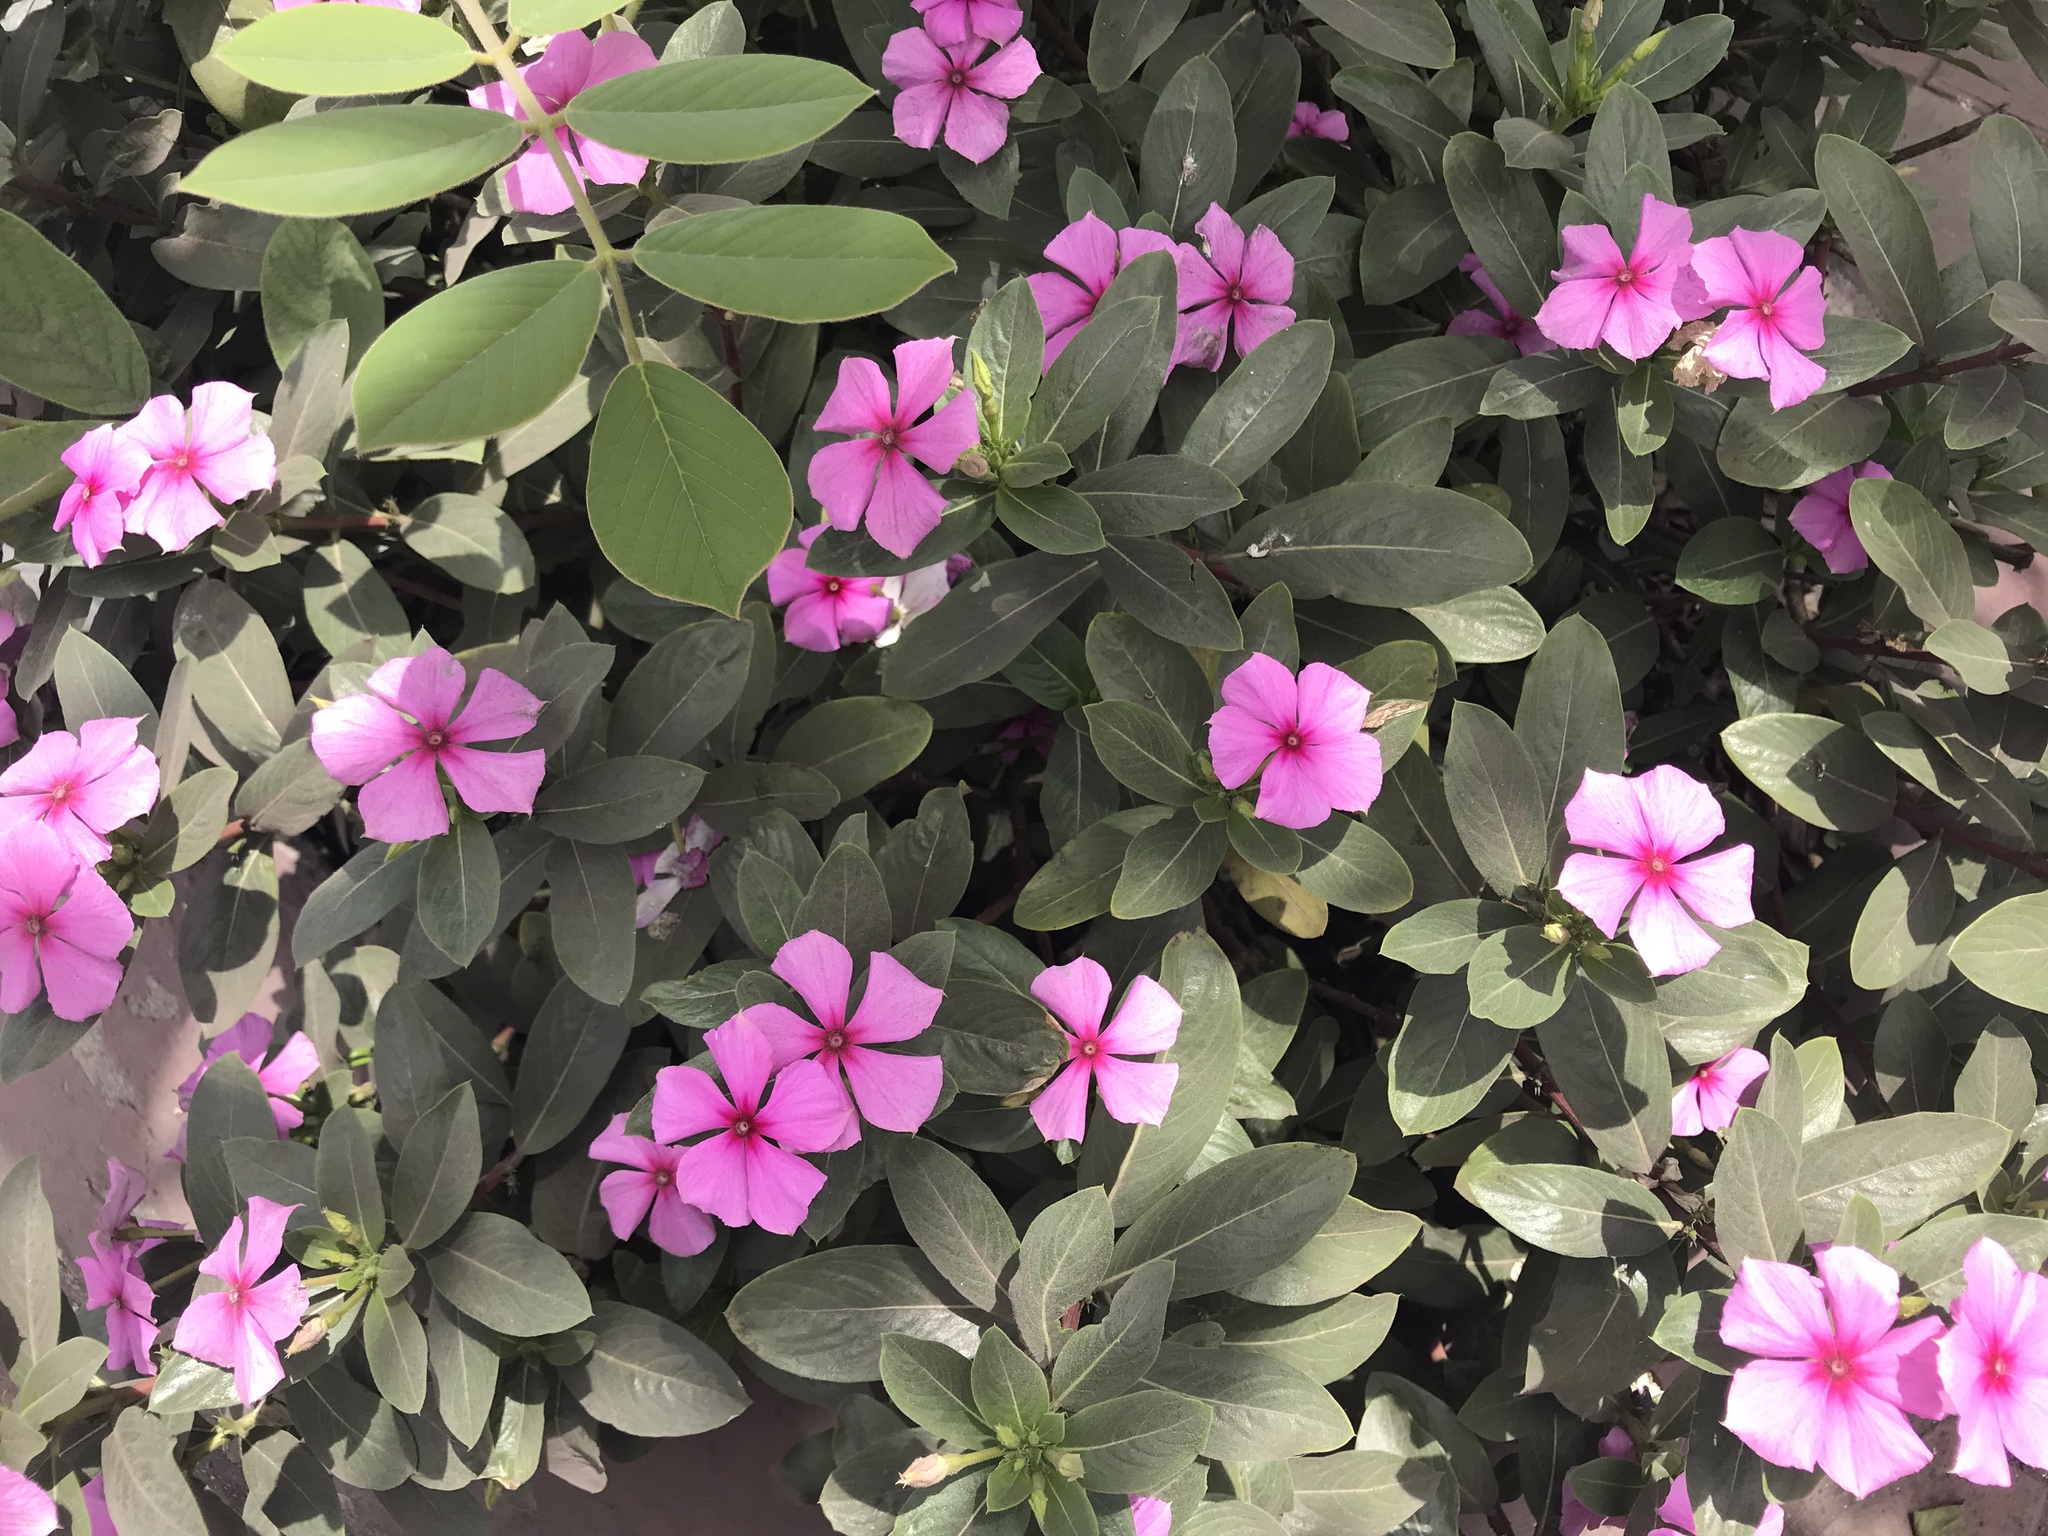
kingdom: Plantae
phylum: Tracheophyta
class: Magnoliopsida
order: Gentianales
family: Apocynaceae
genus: Catharanthus
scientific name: Catharanthus roseus
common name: Madagascar periwinkle
